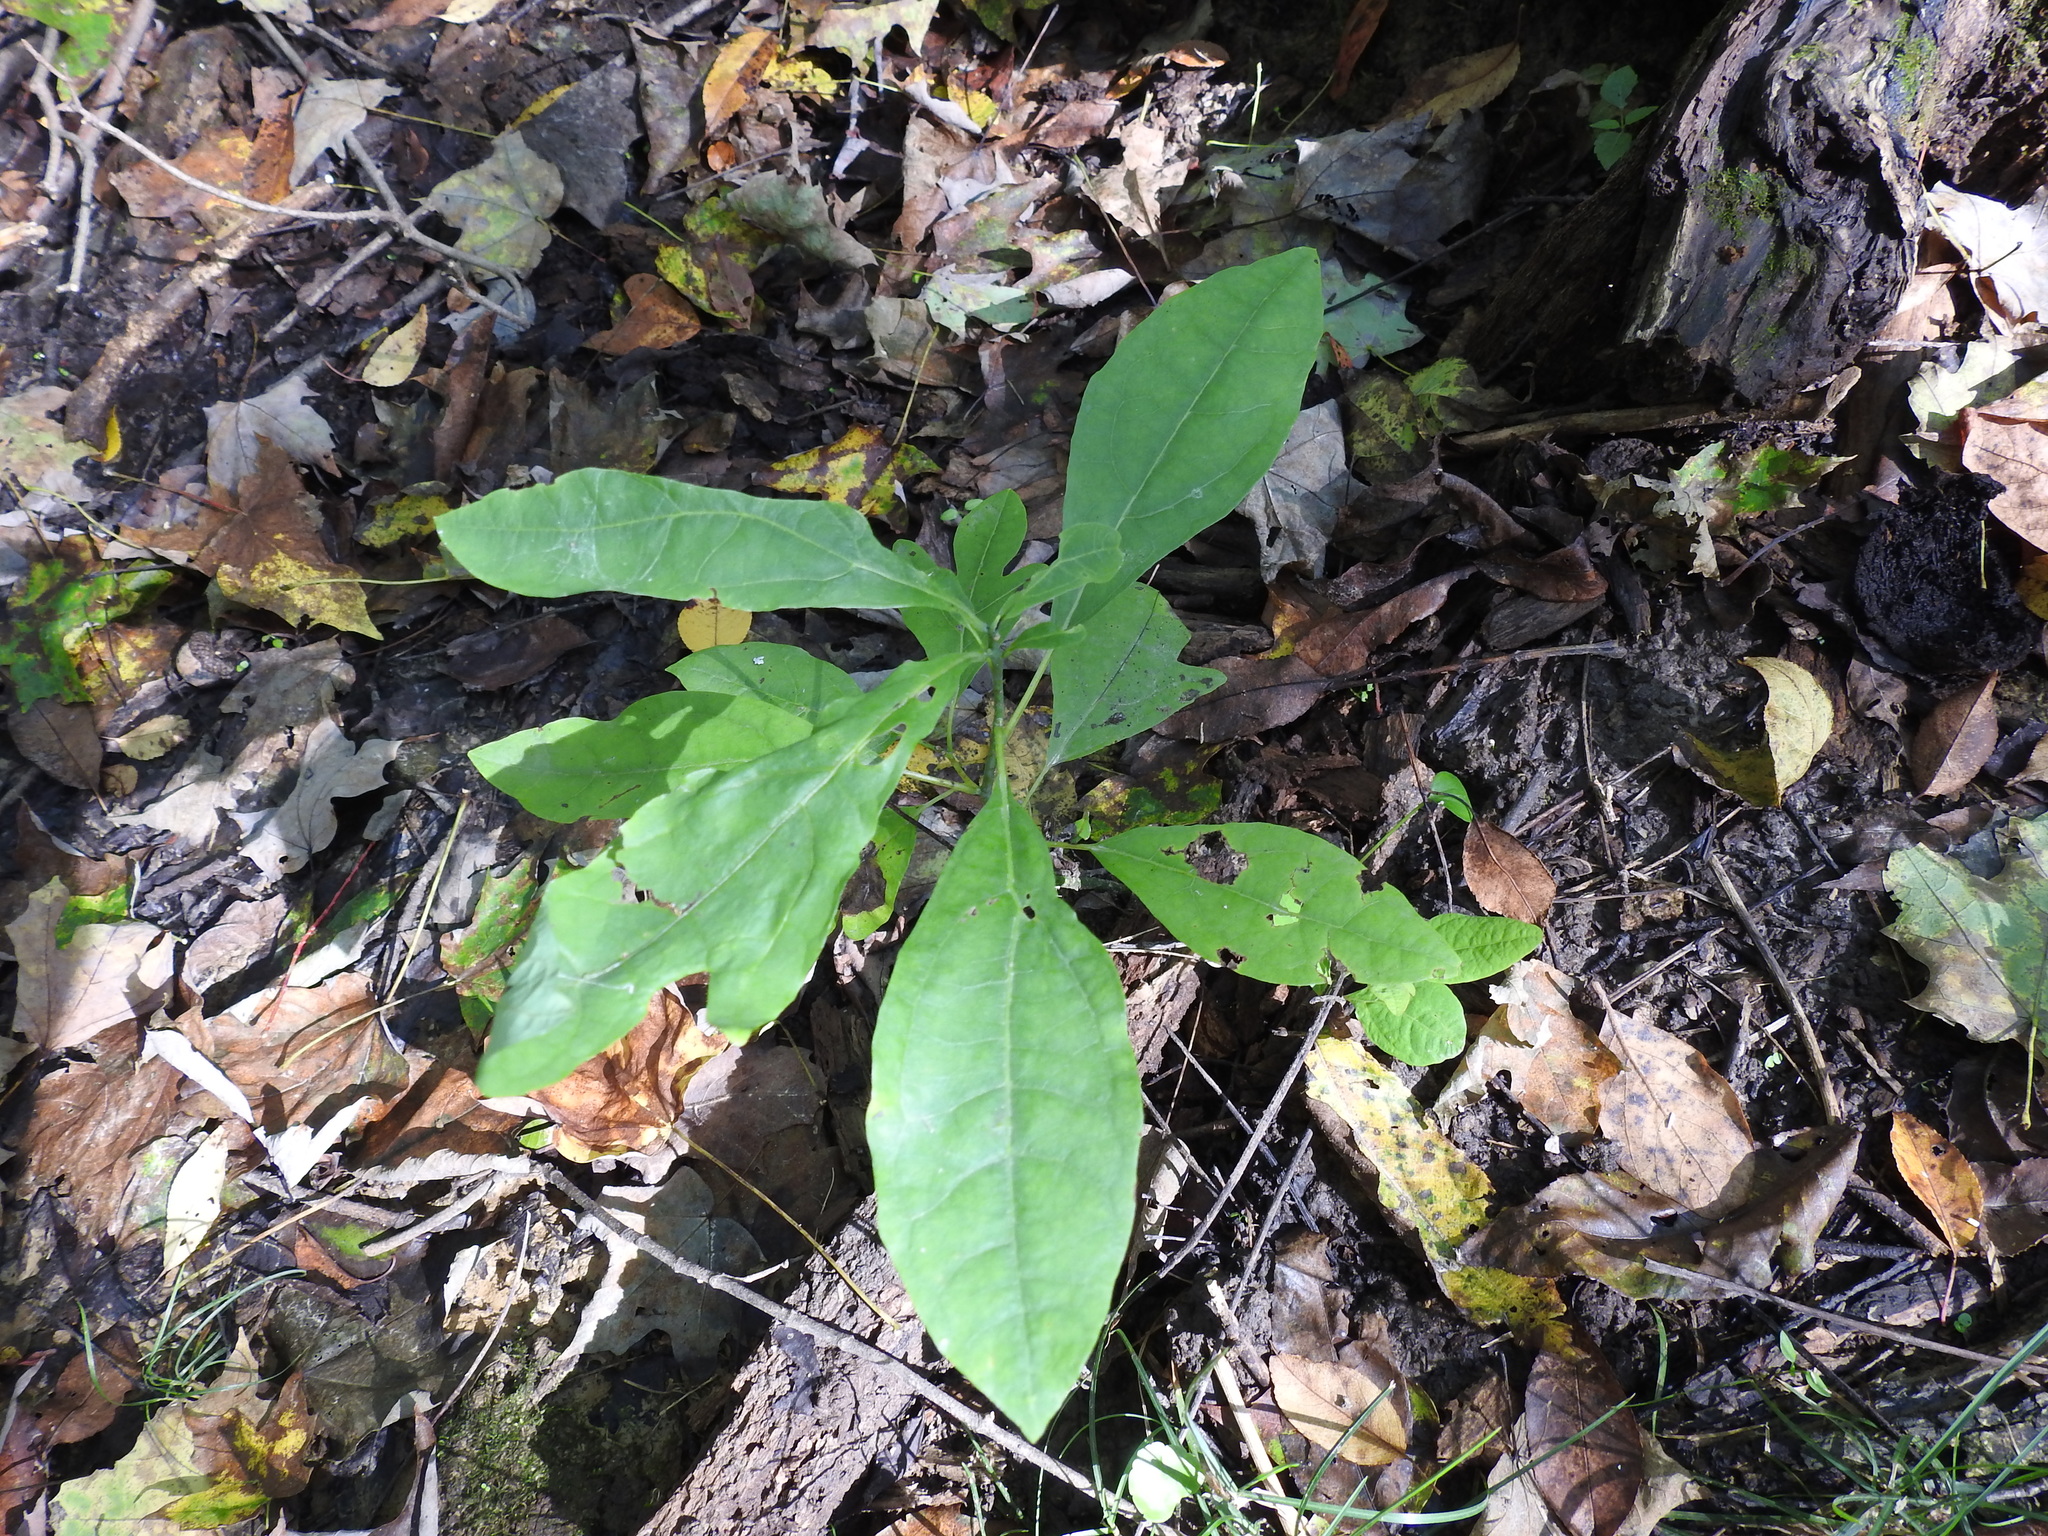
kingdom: Plantae
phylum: Tracheophyta
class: Magnoliopsida
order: Laurales
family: Lauraceae
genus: Sassafras
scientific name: Sassafras albidum
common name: Sassafras
